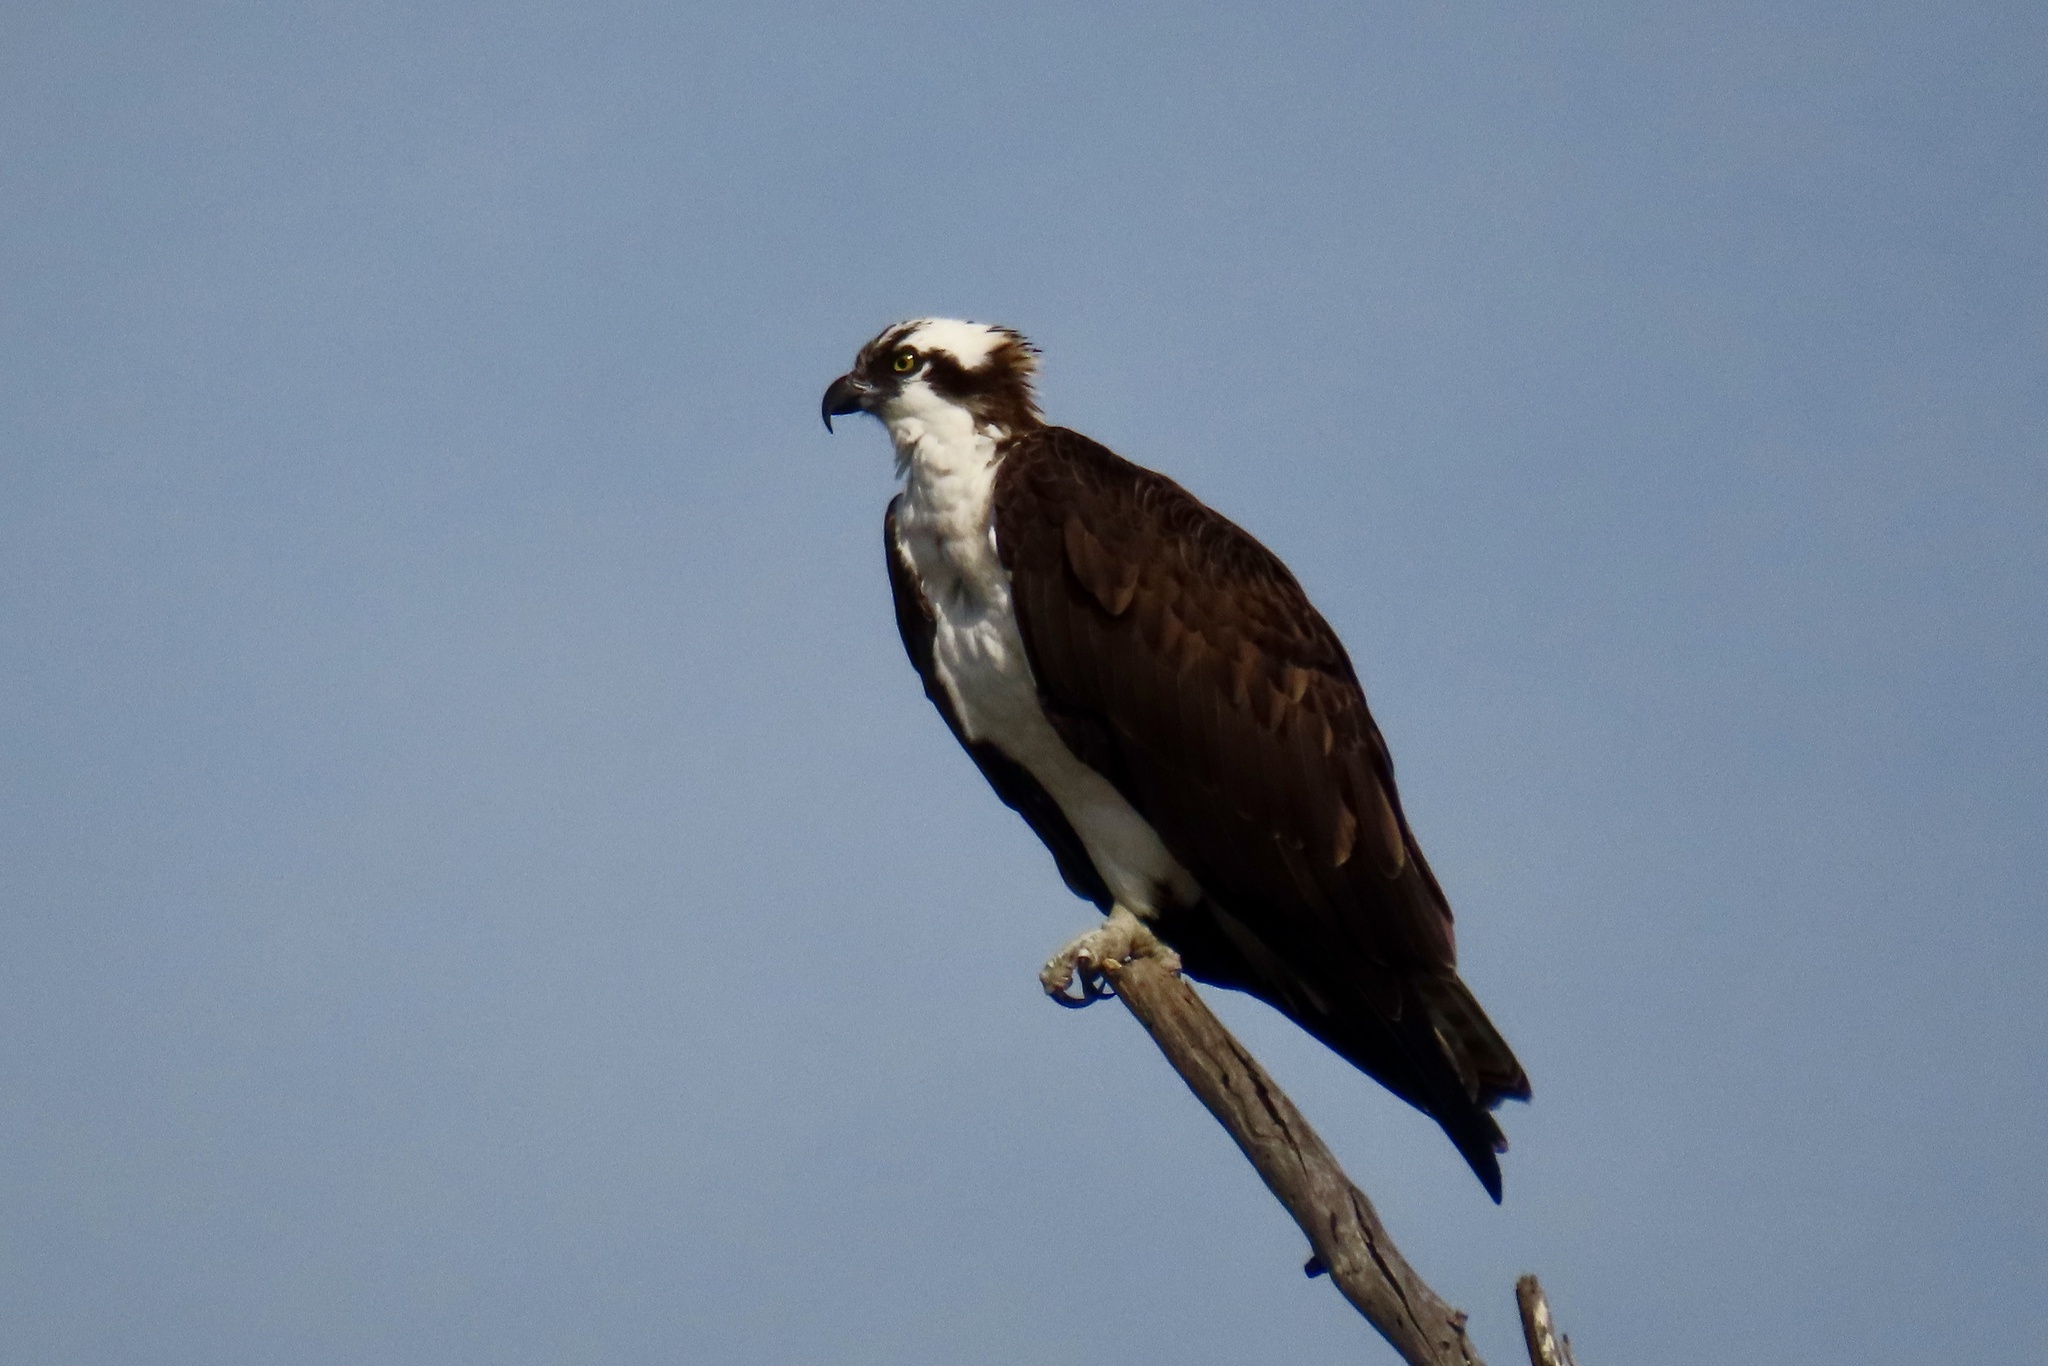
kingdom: Animalia
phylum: Chordata
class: Aves
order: Accipitriformes
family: Pandionidae
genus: Pandion
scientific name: Pandion haliaetus
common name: Osprey
